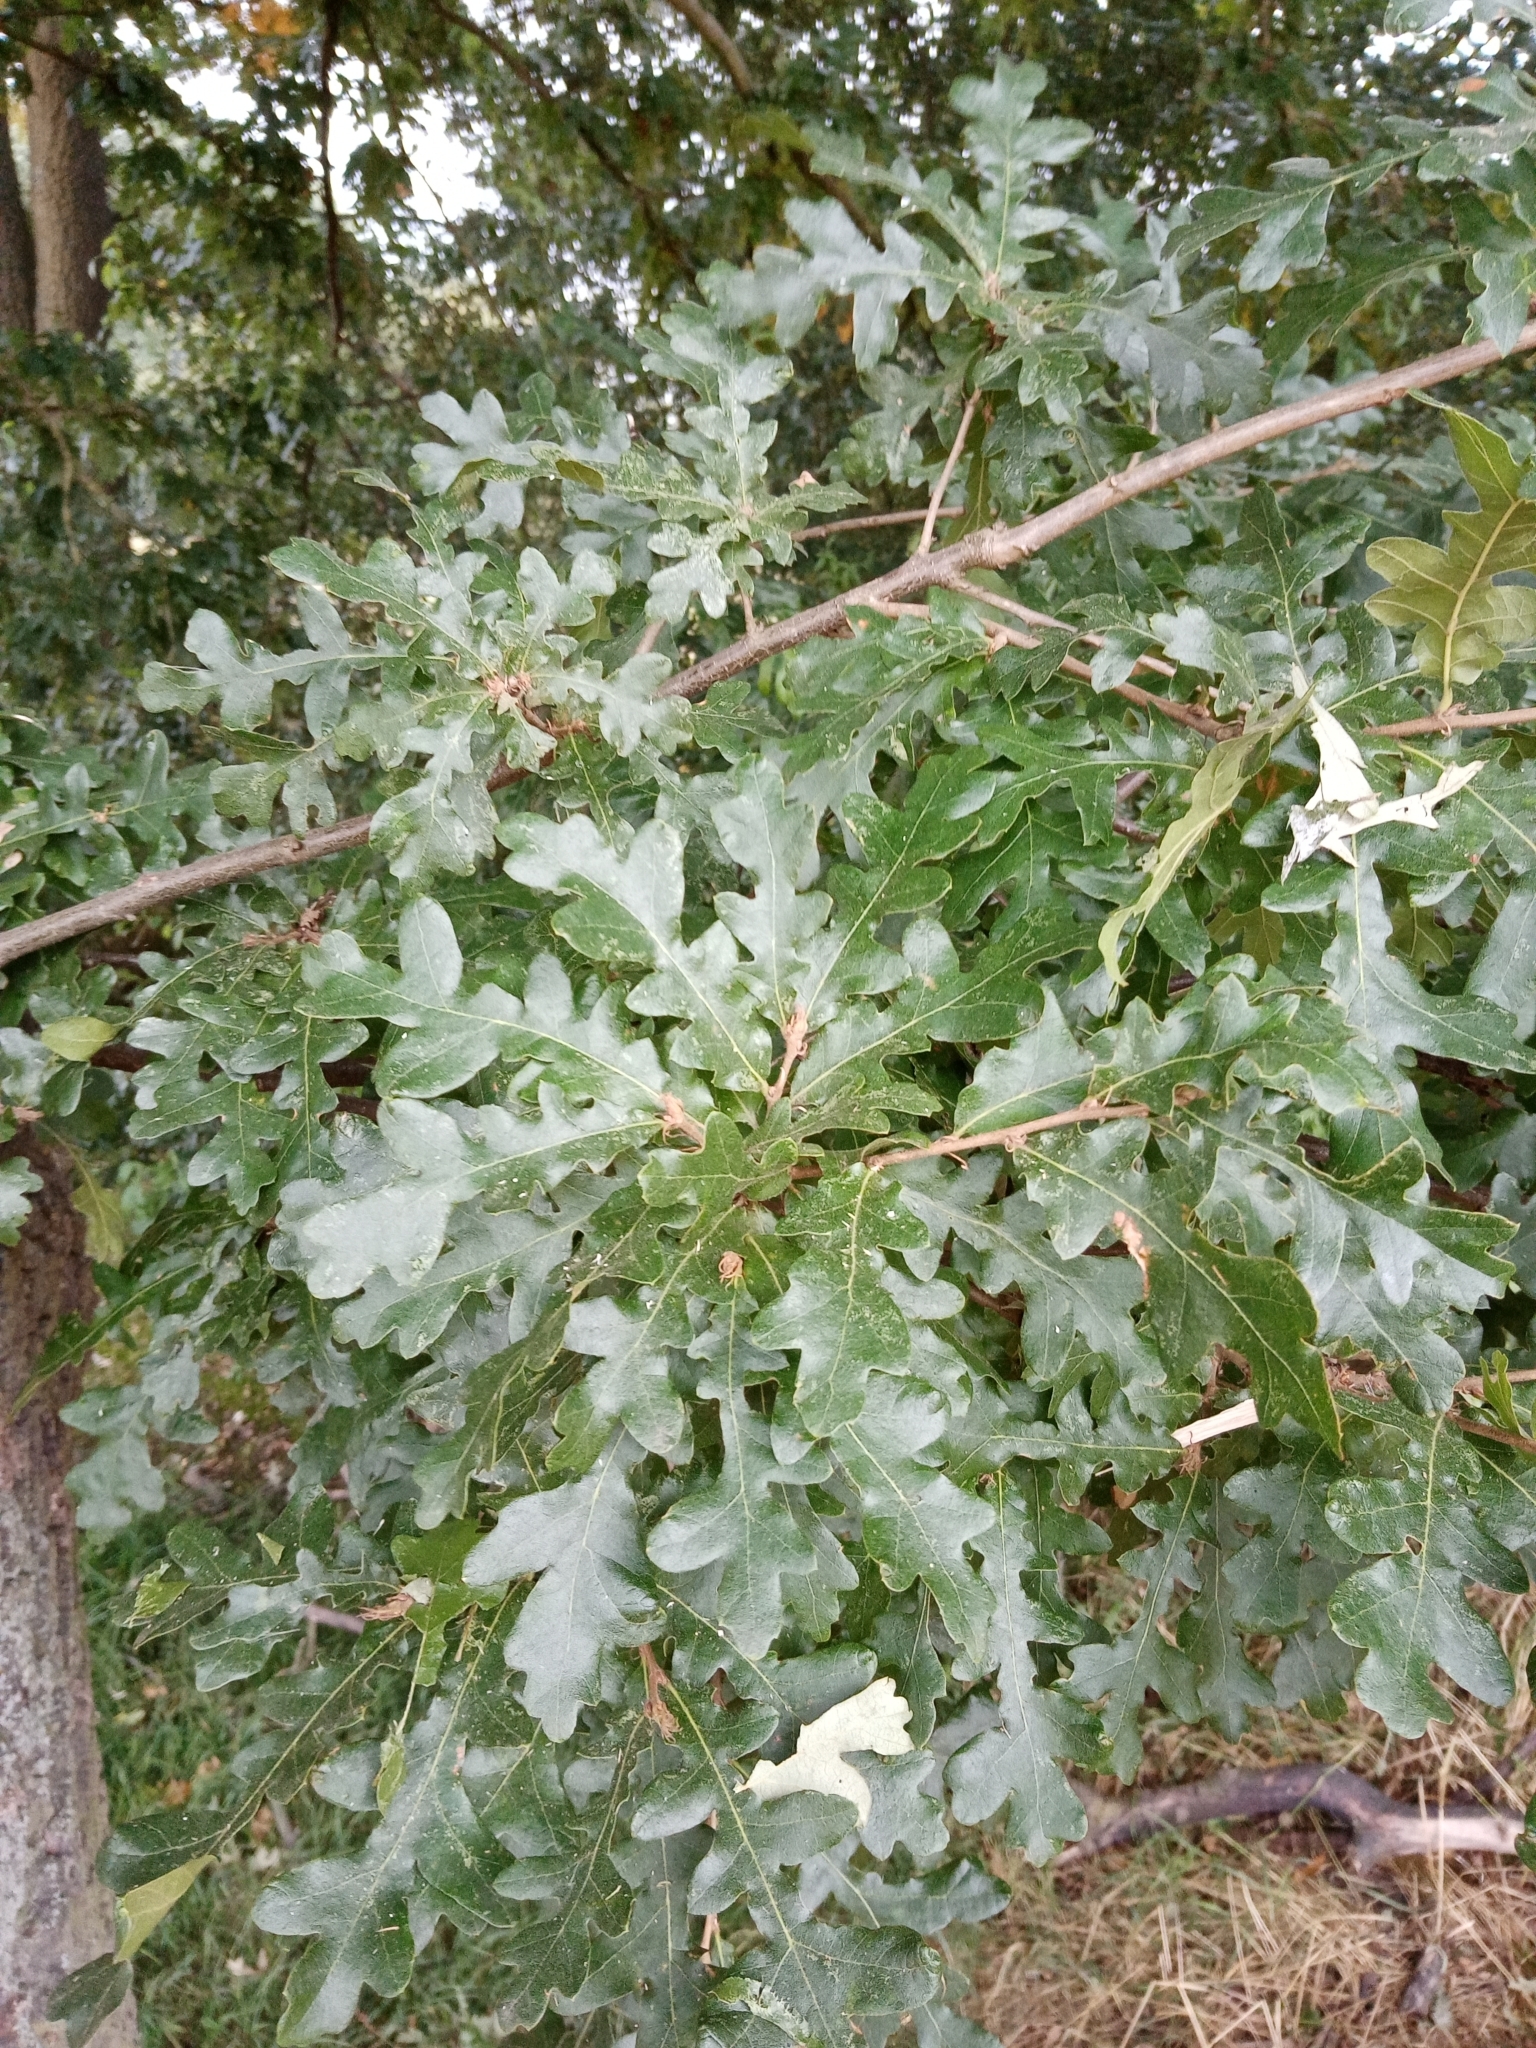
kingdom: Plantae
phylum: Tracheophyta
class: Magnoliopsida
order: Fagales
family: Fagaceae
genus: Quercus
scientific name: Quercus cerris
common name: Turkey oak
